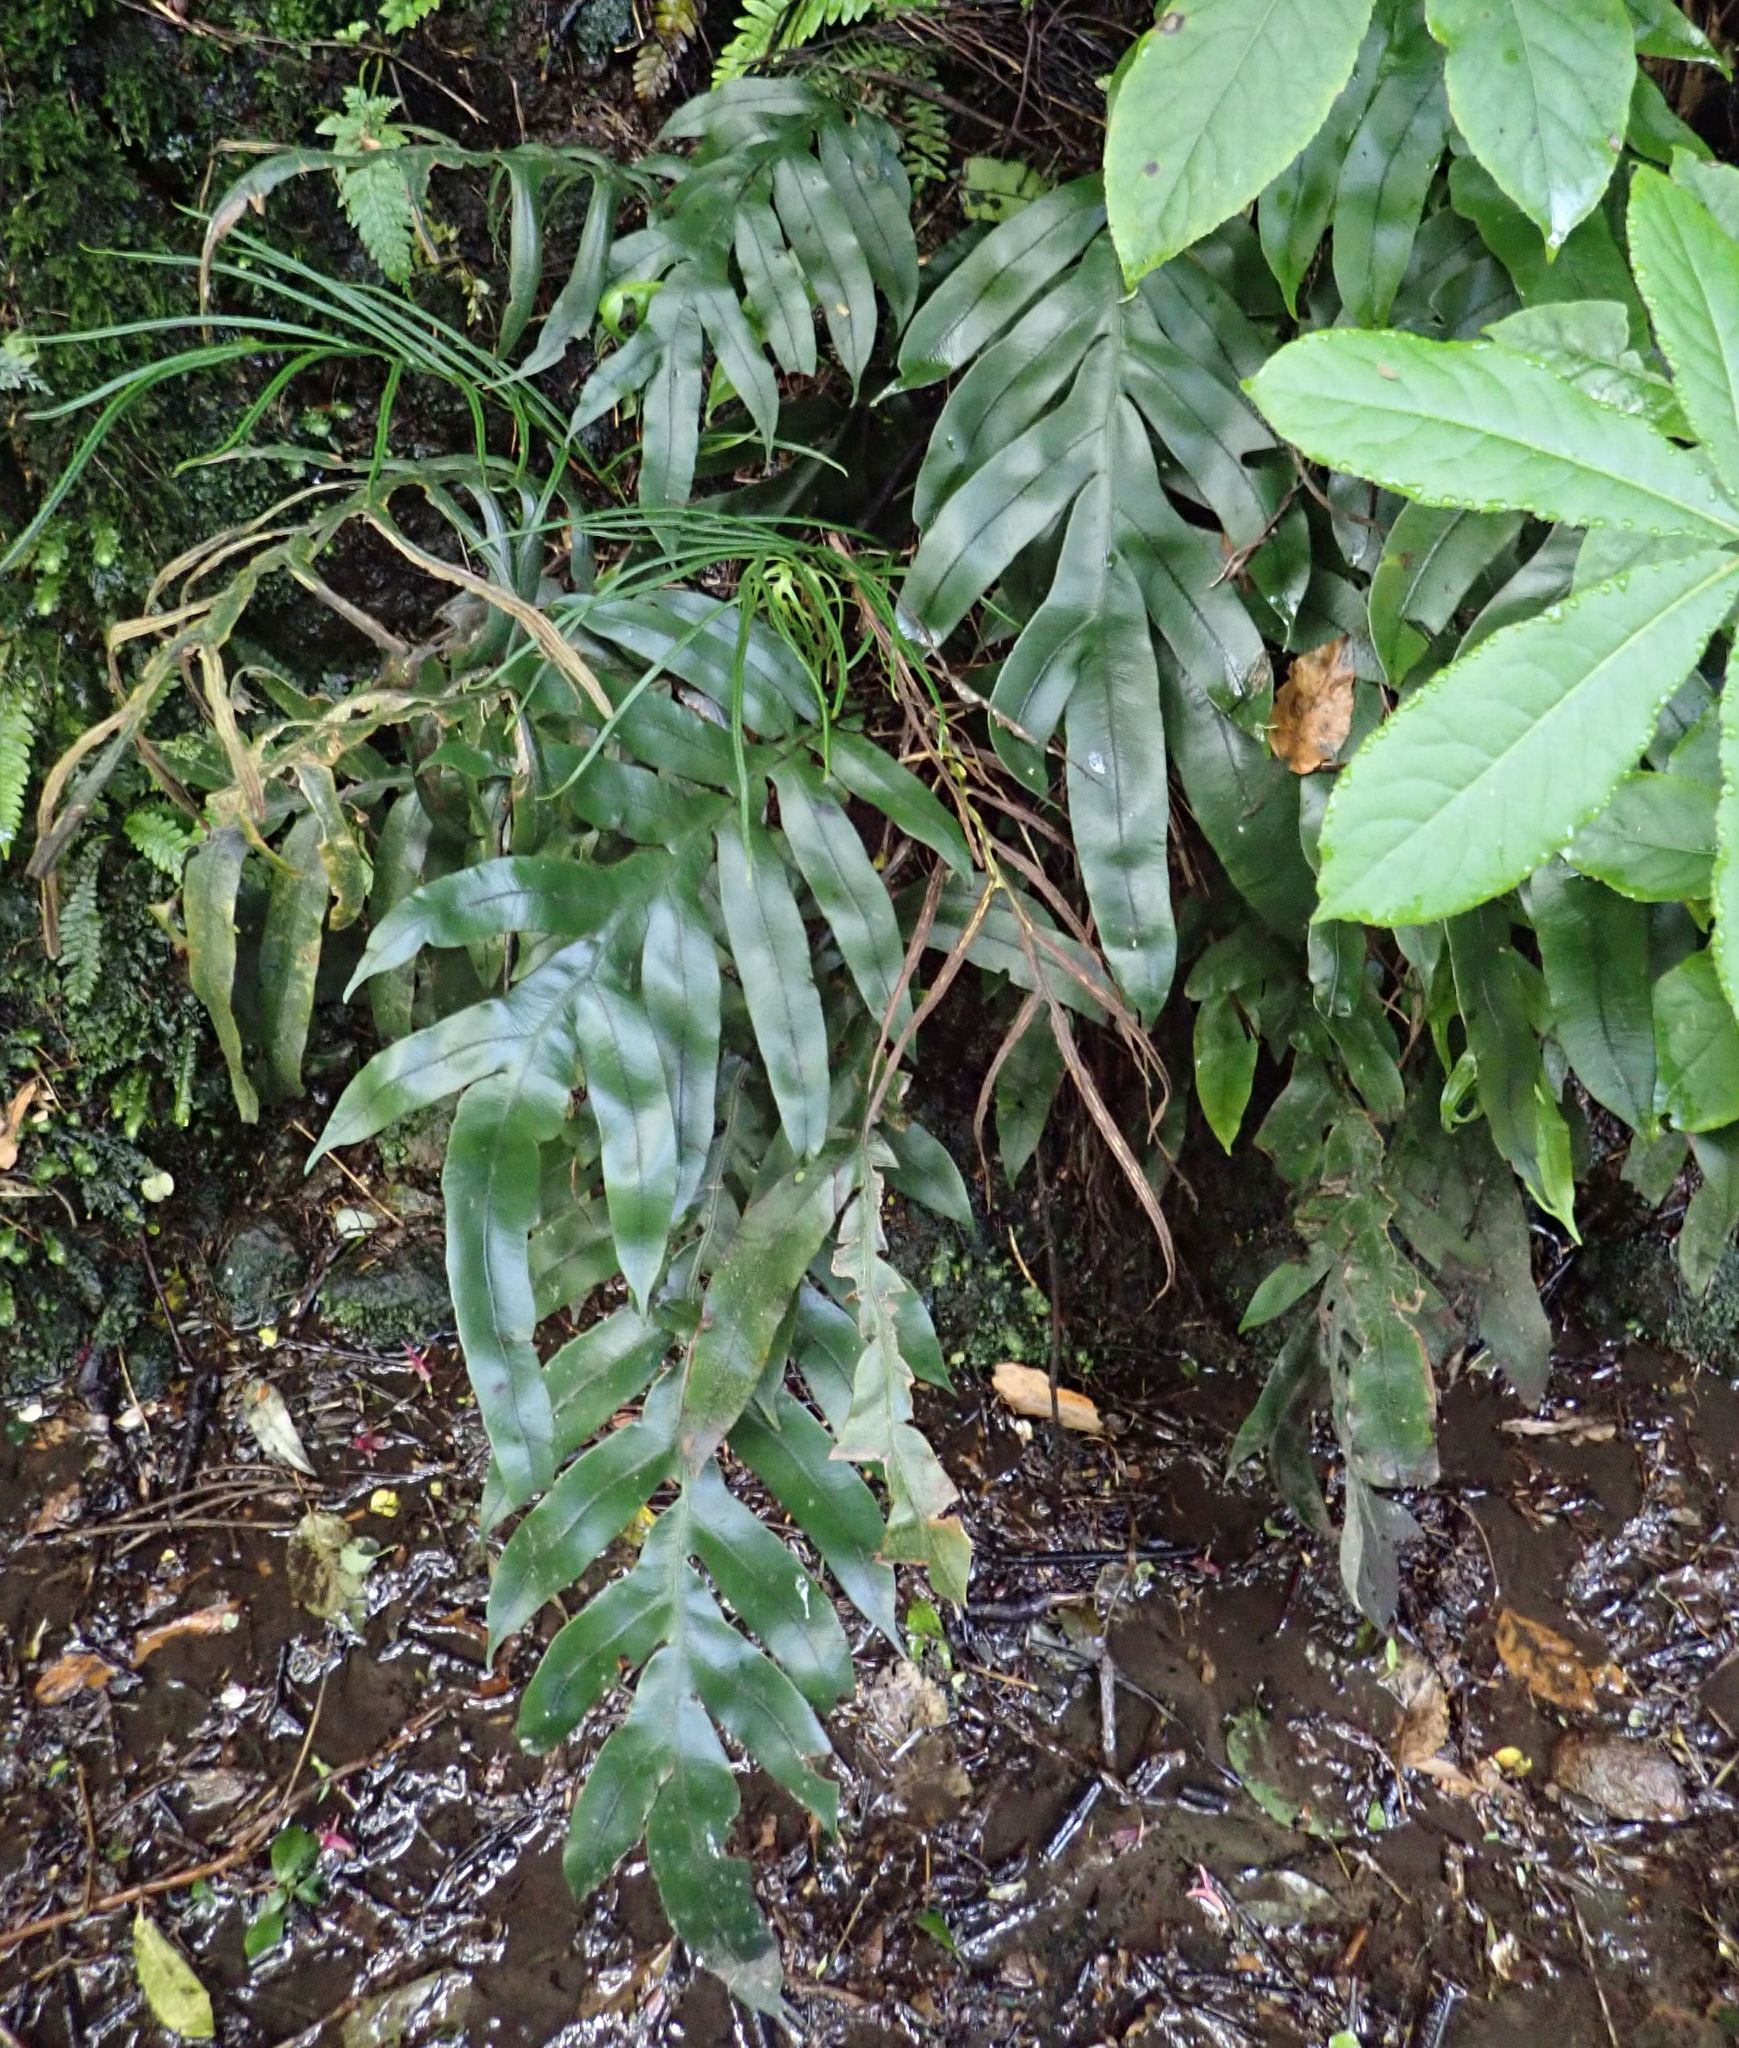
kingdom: Plantae
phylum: Tracheophyta
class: Polypodiopsida
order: Polypodiales
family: Blechnaceae
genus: Austroblechnum
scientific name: Austroblechnum colensoi
